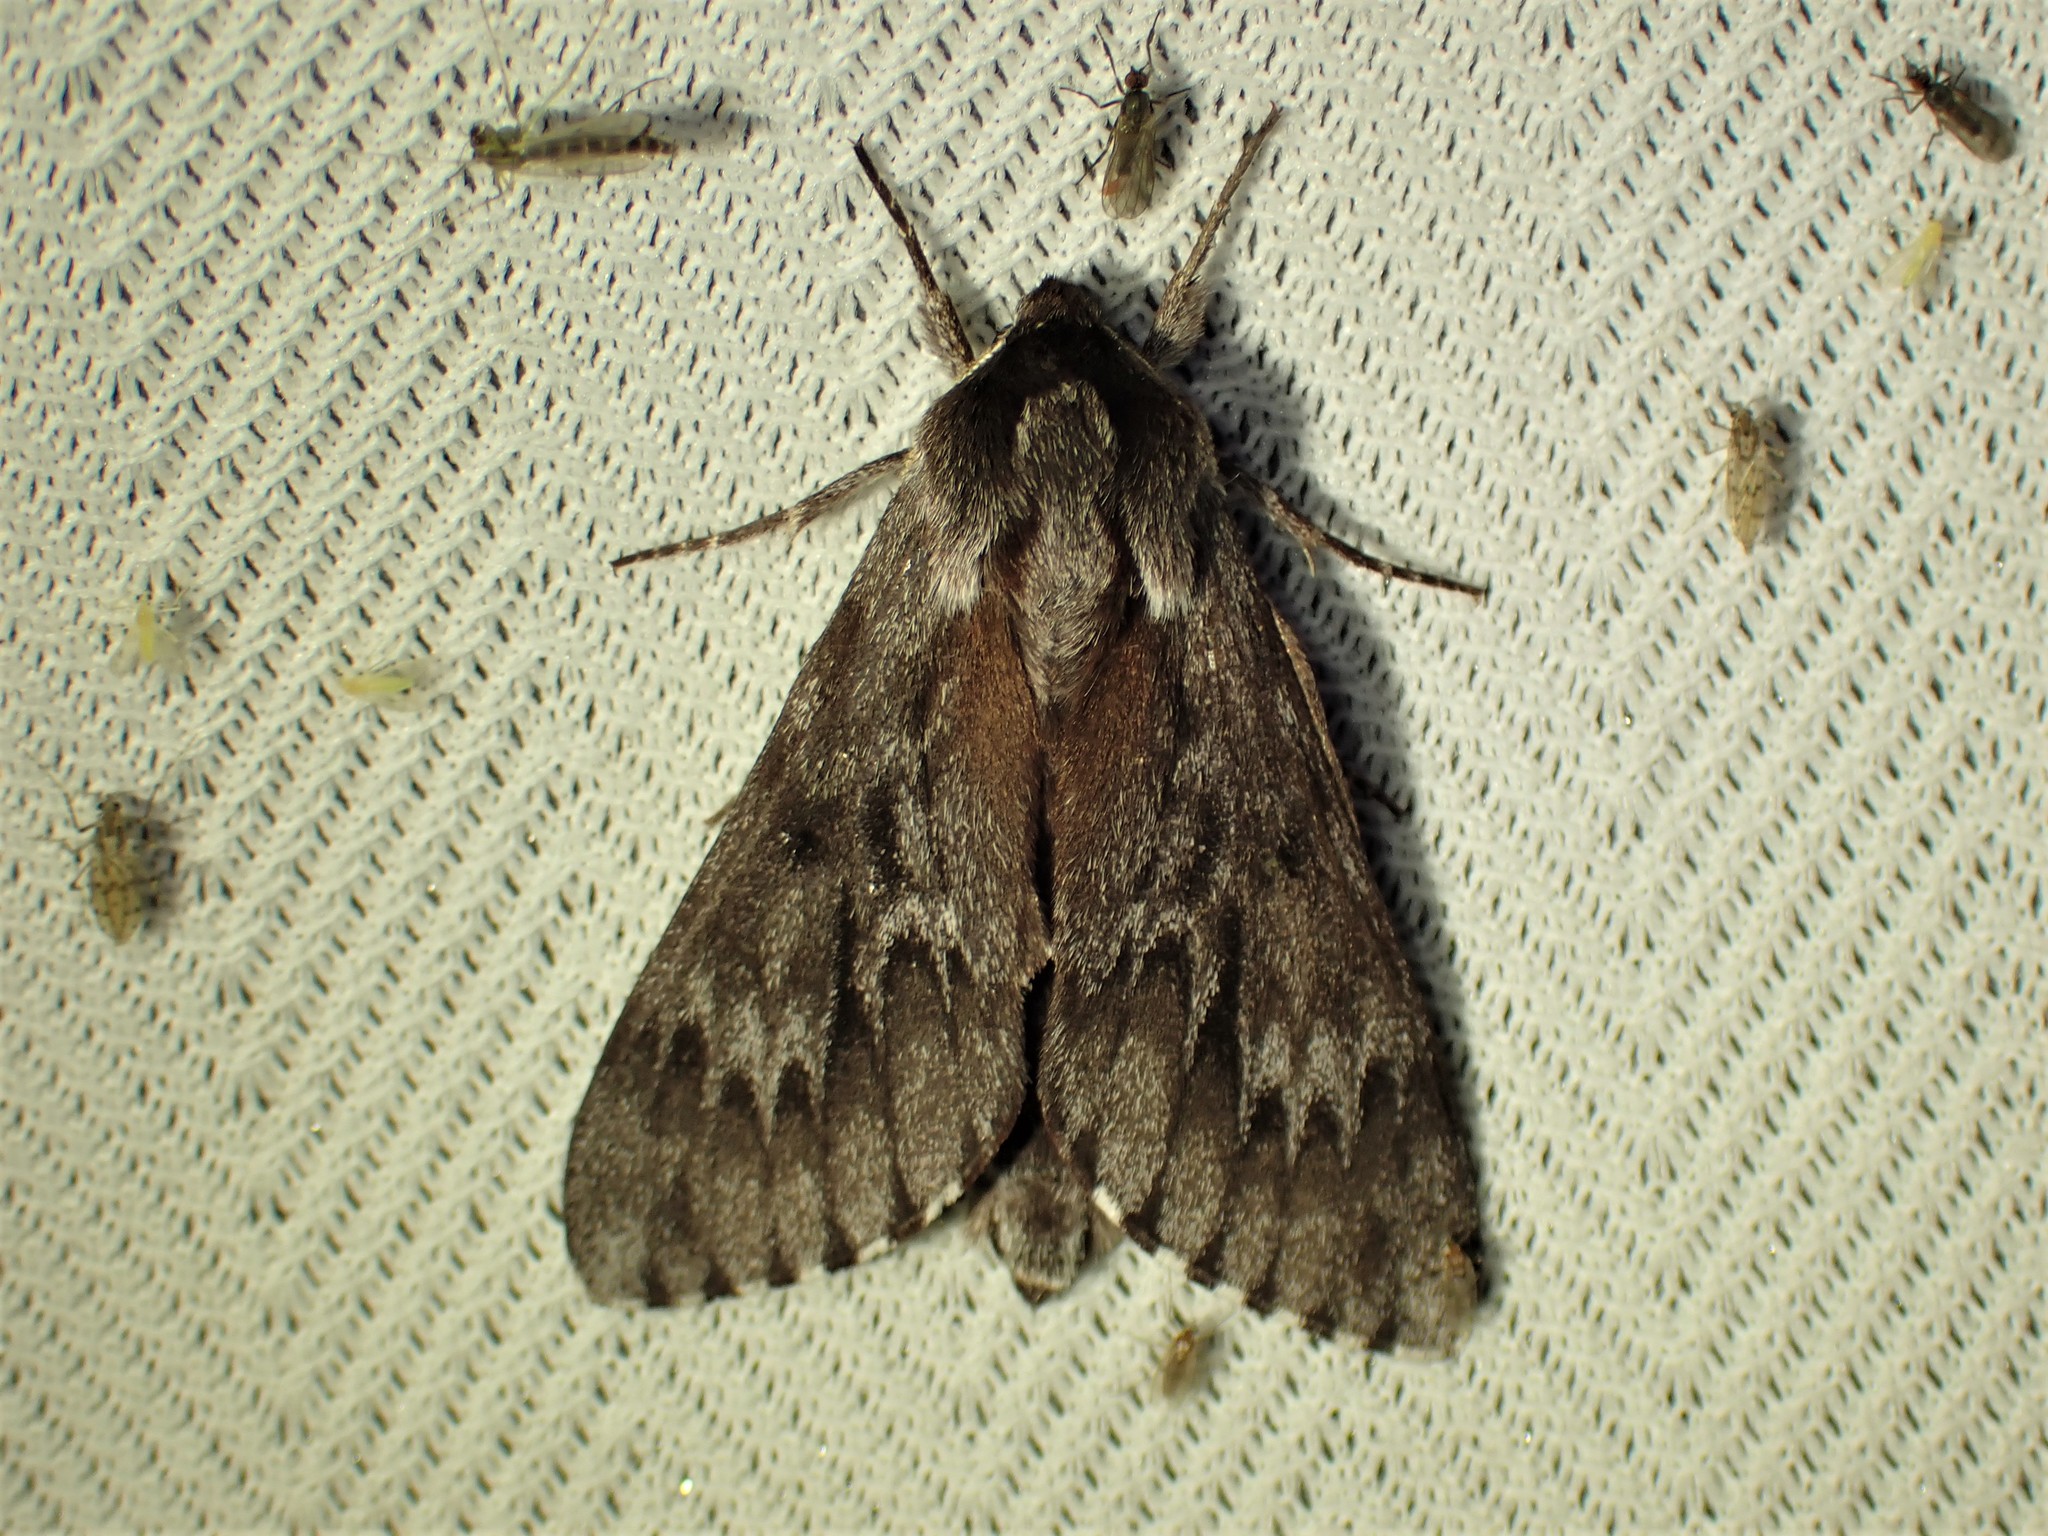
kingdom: Animalia
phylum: Arthropoda
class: Insecta
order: Lepidoptera
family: Sphingidae
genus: Lapara
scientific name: Lapara bombycoides
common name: Northern pine sphinx
